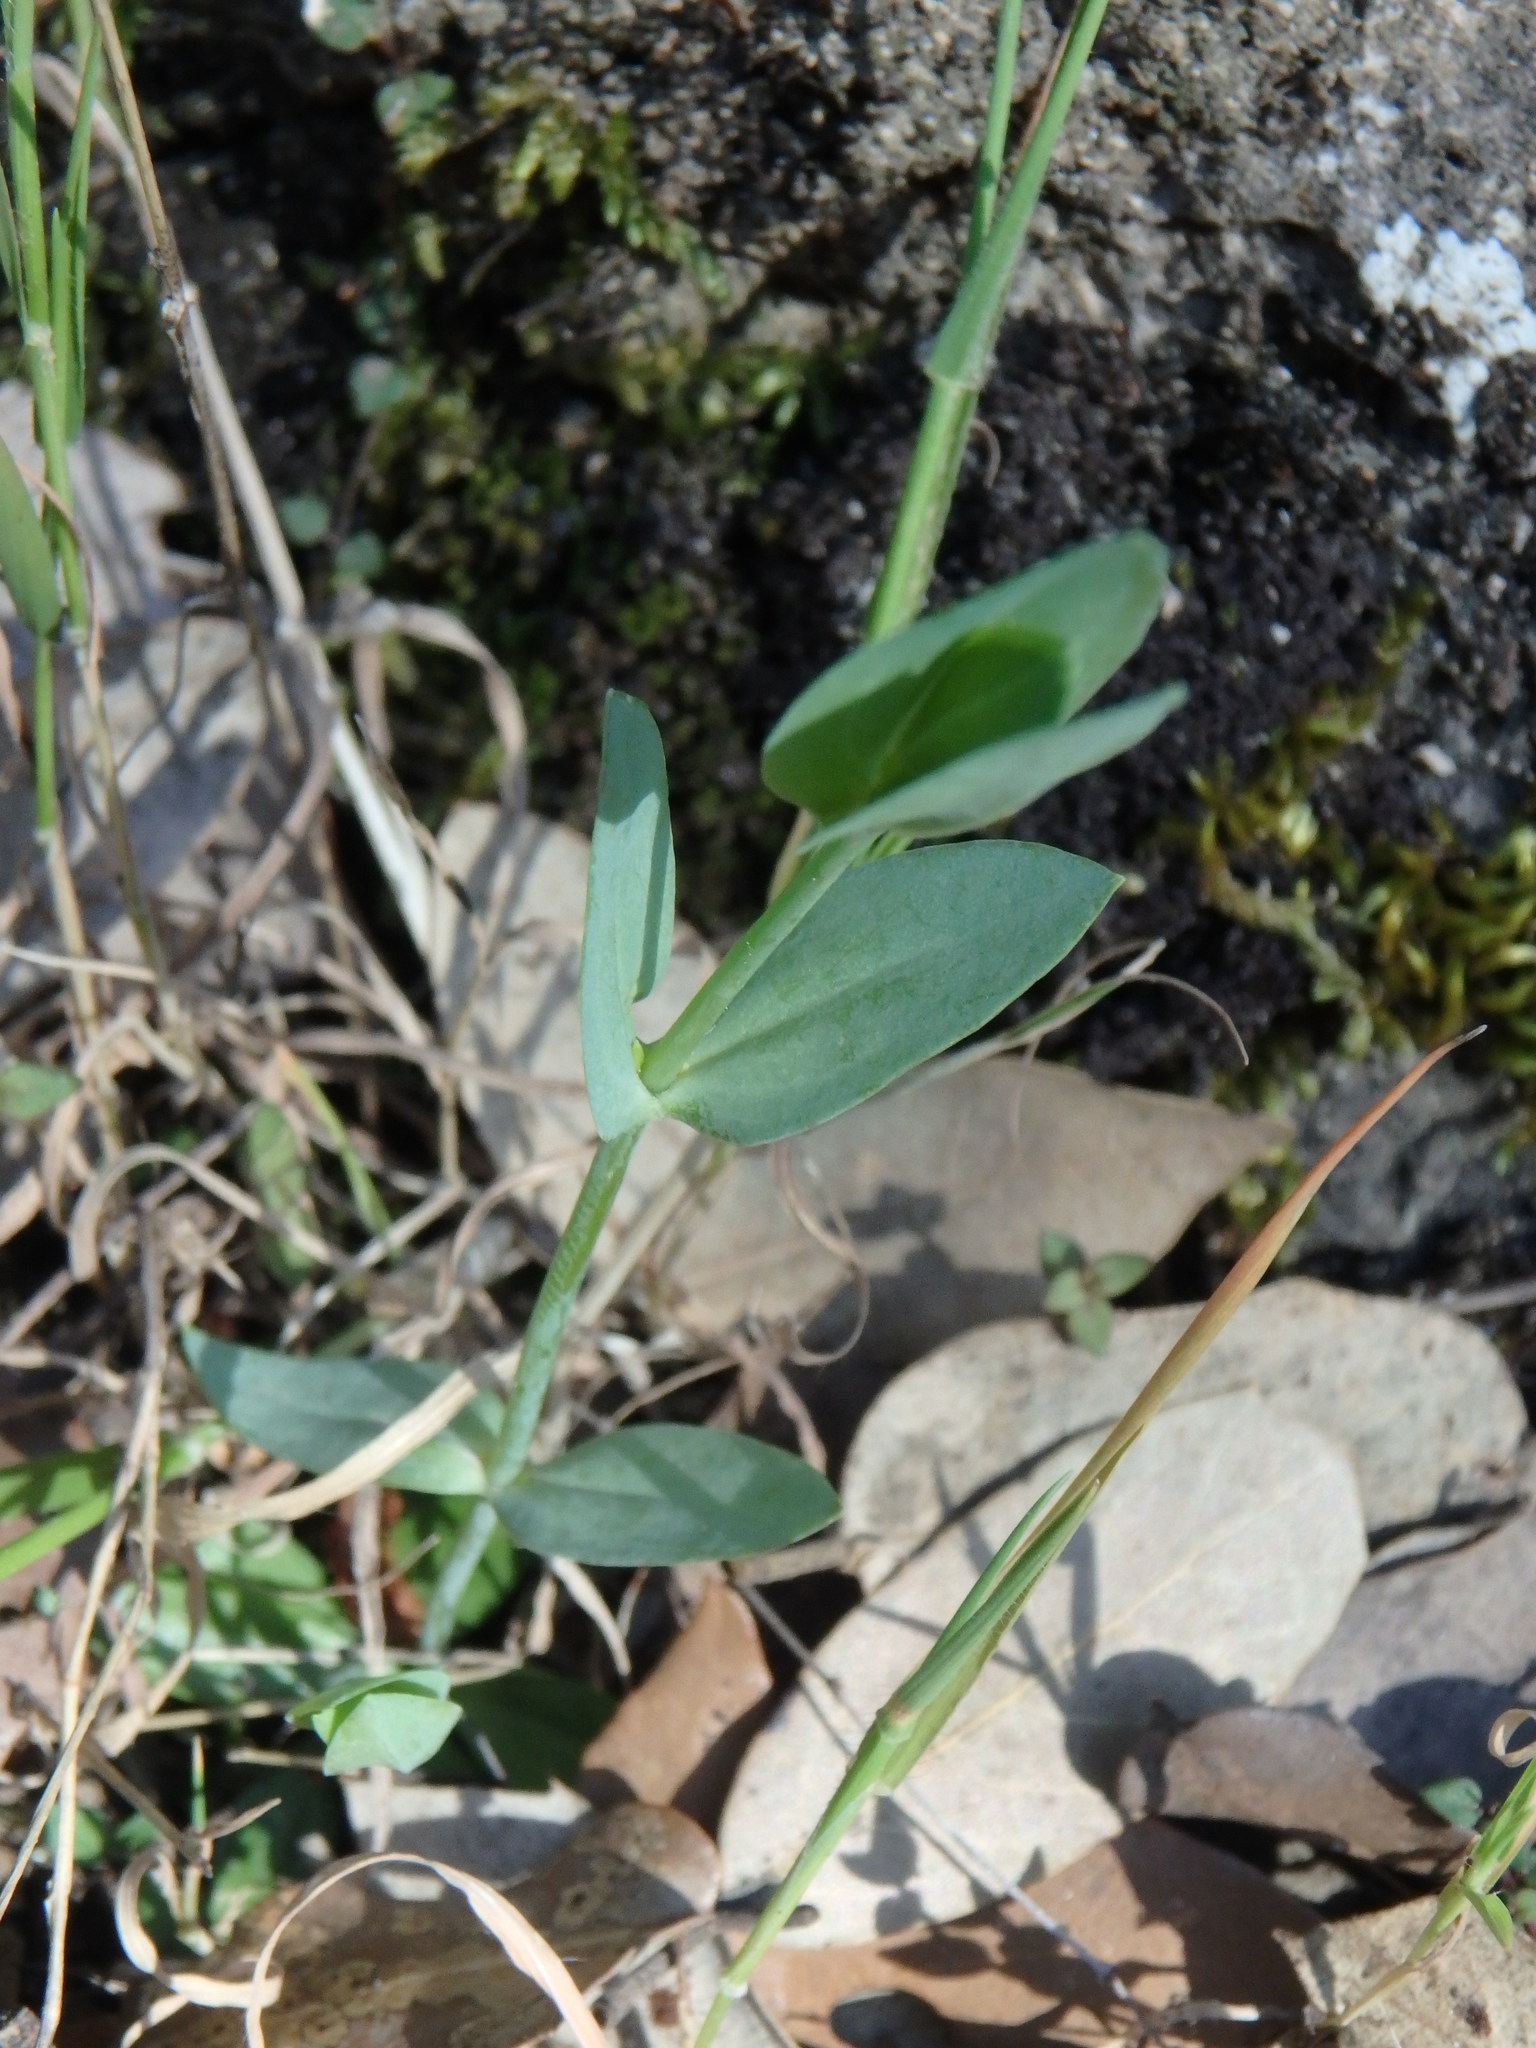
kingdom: Plantae
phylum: Tracheophyta
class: Magnoliopsida
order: Gentianales
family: Gentianaceae
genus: Blackstonia
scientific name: Blackstonia perfoliata
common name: Yellow-wort
